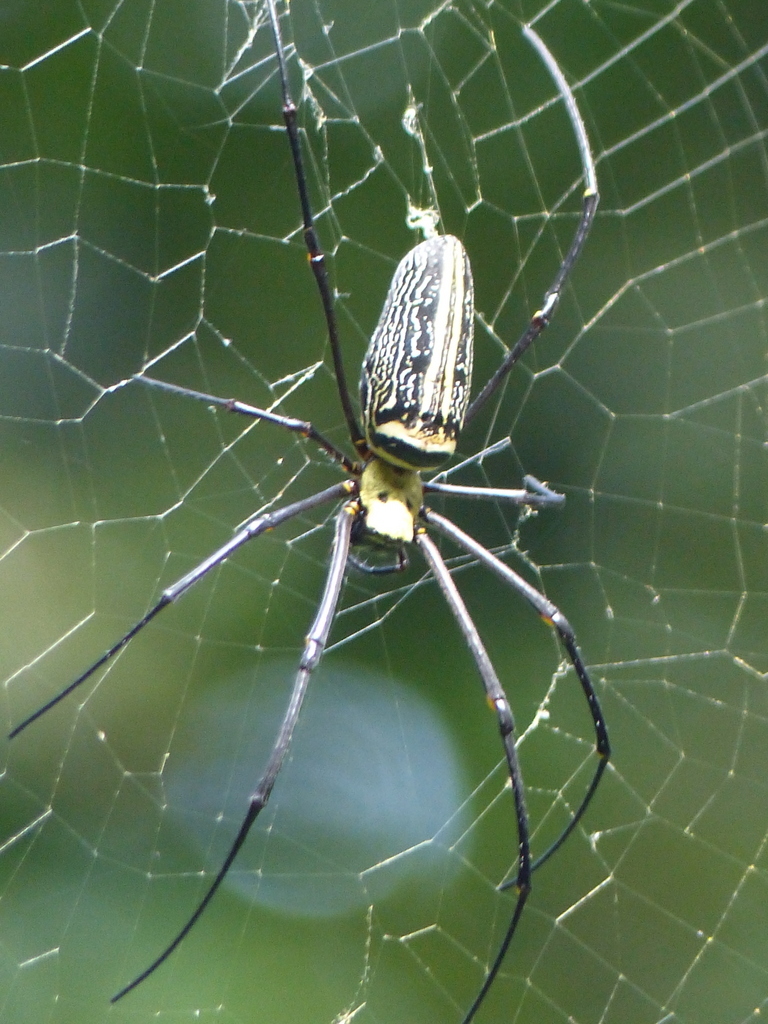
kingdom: Animalia
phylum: Arthropoda
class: Arachnida
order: Araneae
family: Araneidae
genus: Nephila
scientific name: Nephila pilipes
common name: Giant golden orb weaver
